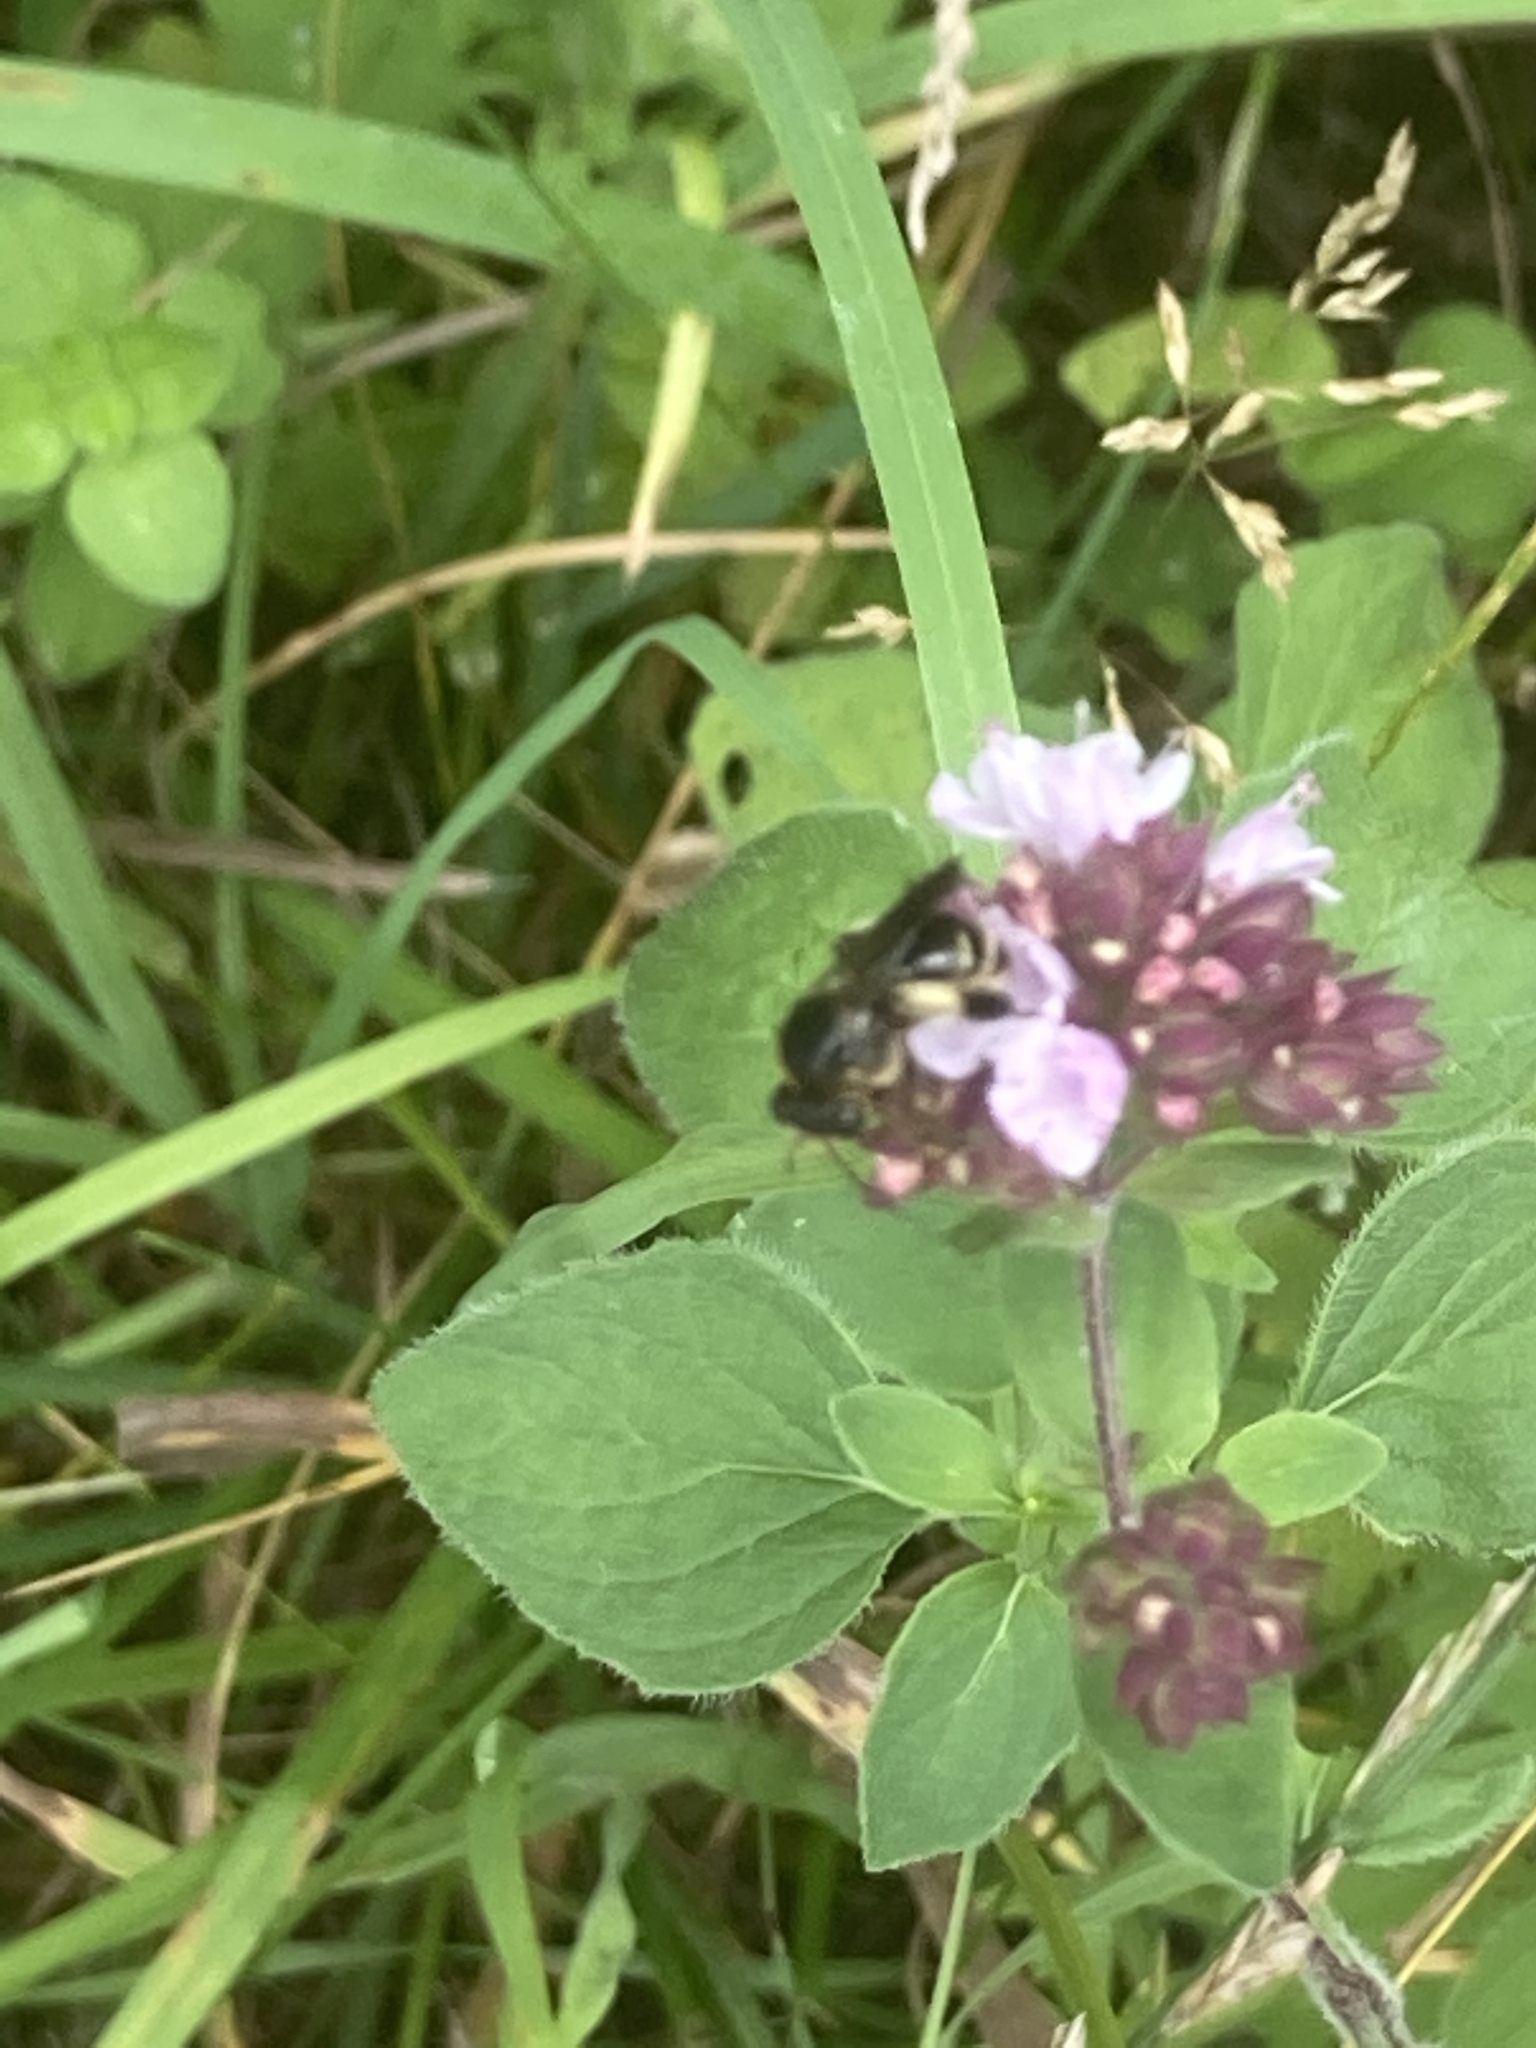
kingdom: Animalia
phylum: Arthropoda
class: Insecta
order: Hymenoptera
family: Melittidae
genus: Macropis
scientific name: Macropis europaea
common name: Yellow loosestrife bee
